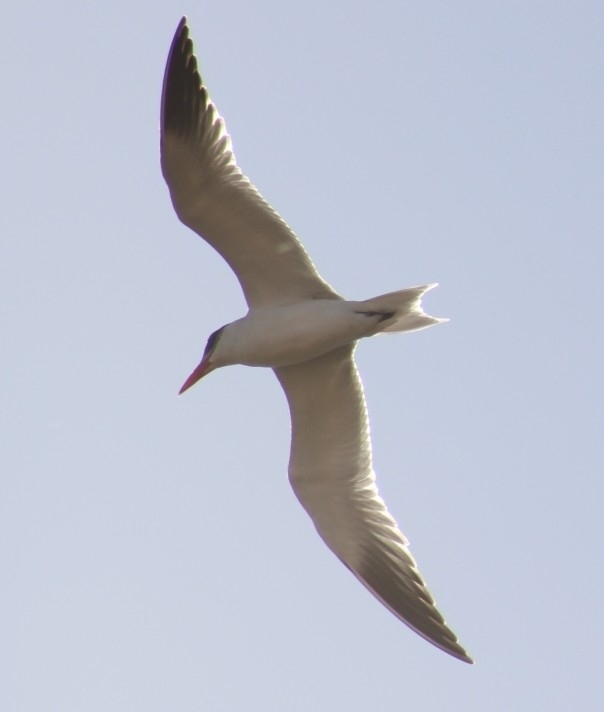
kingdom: Animalia
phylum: Chordata
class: Aves
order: Charadriiformes
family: Laridae
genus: Hydroprogne
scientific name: Hydroprogne caspia
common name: Caspian tern
